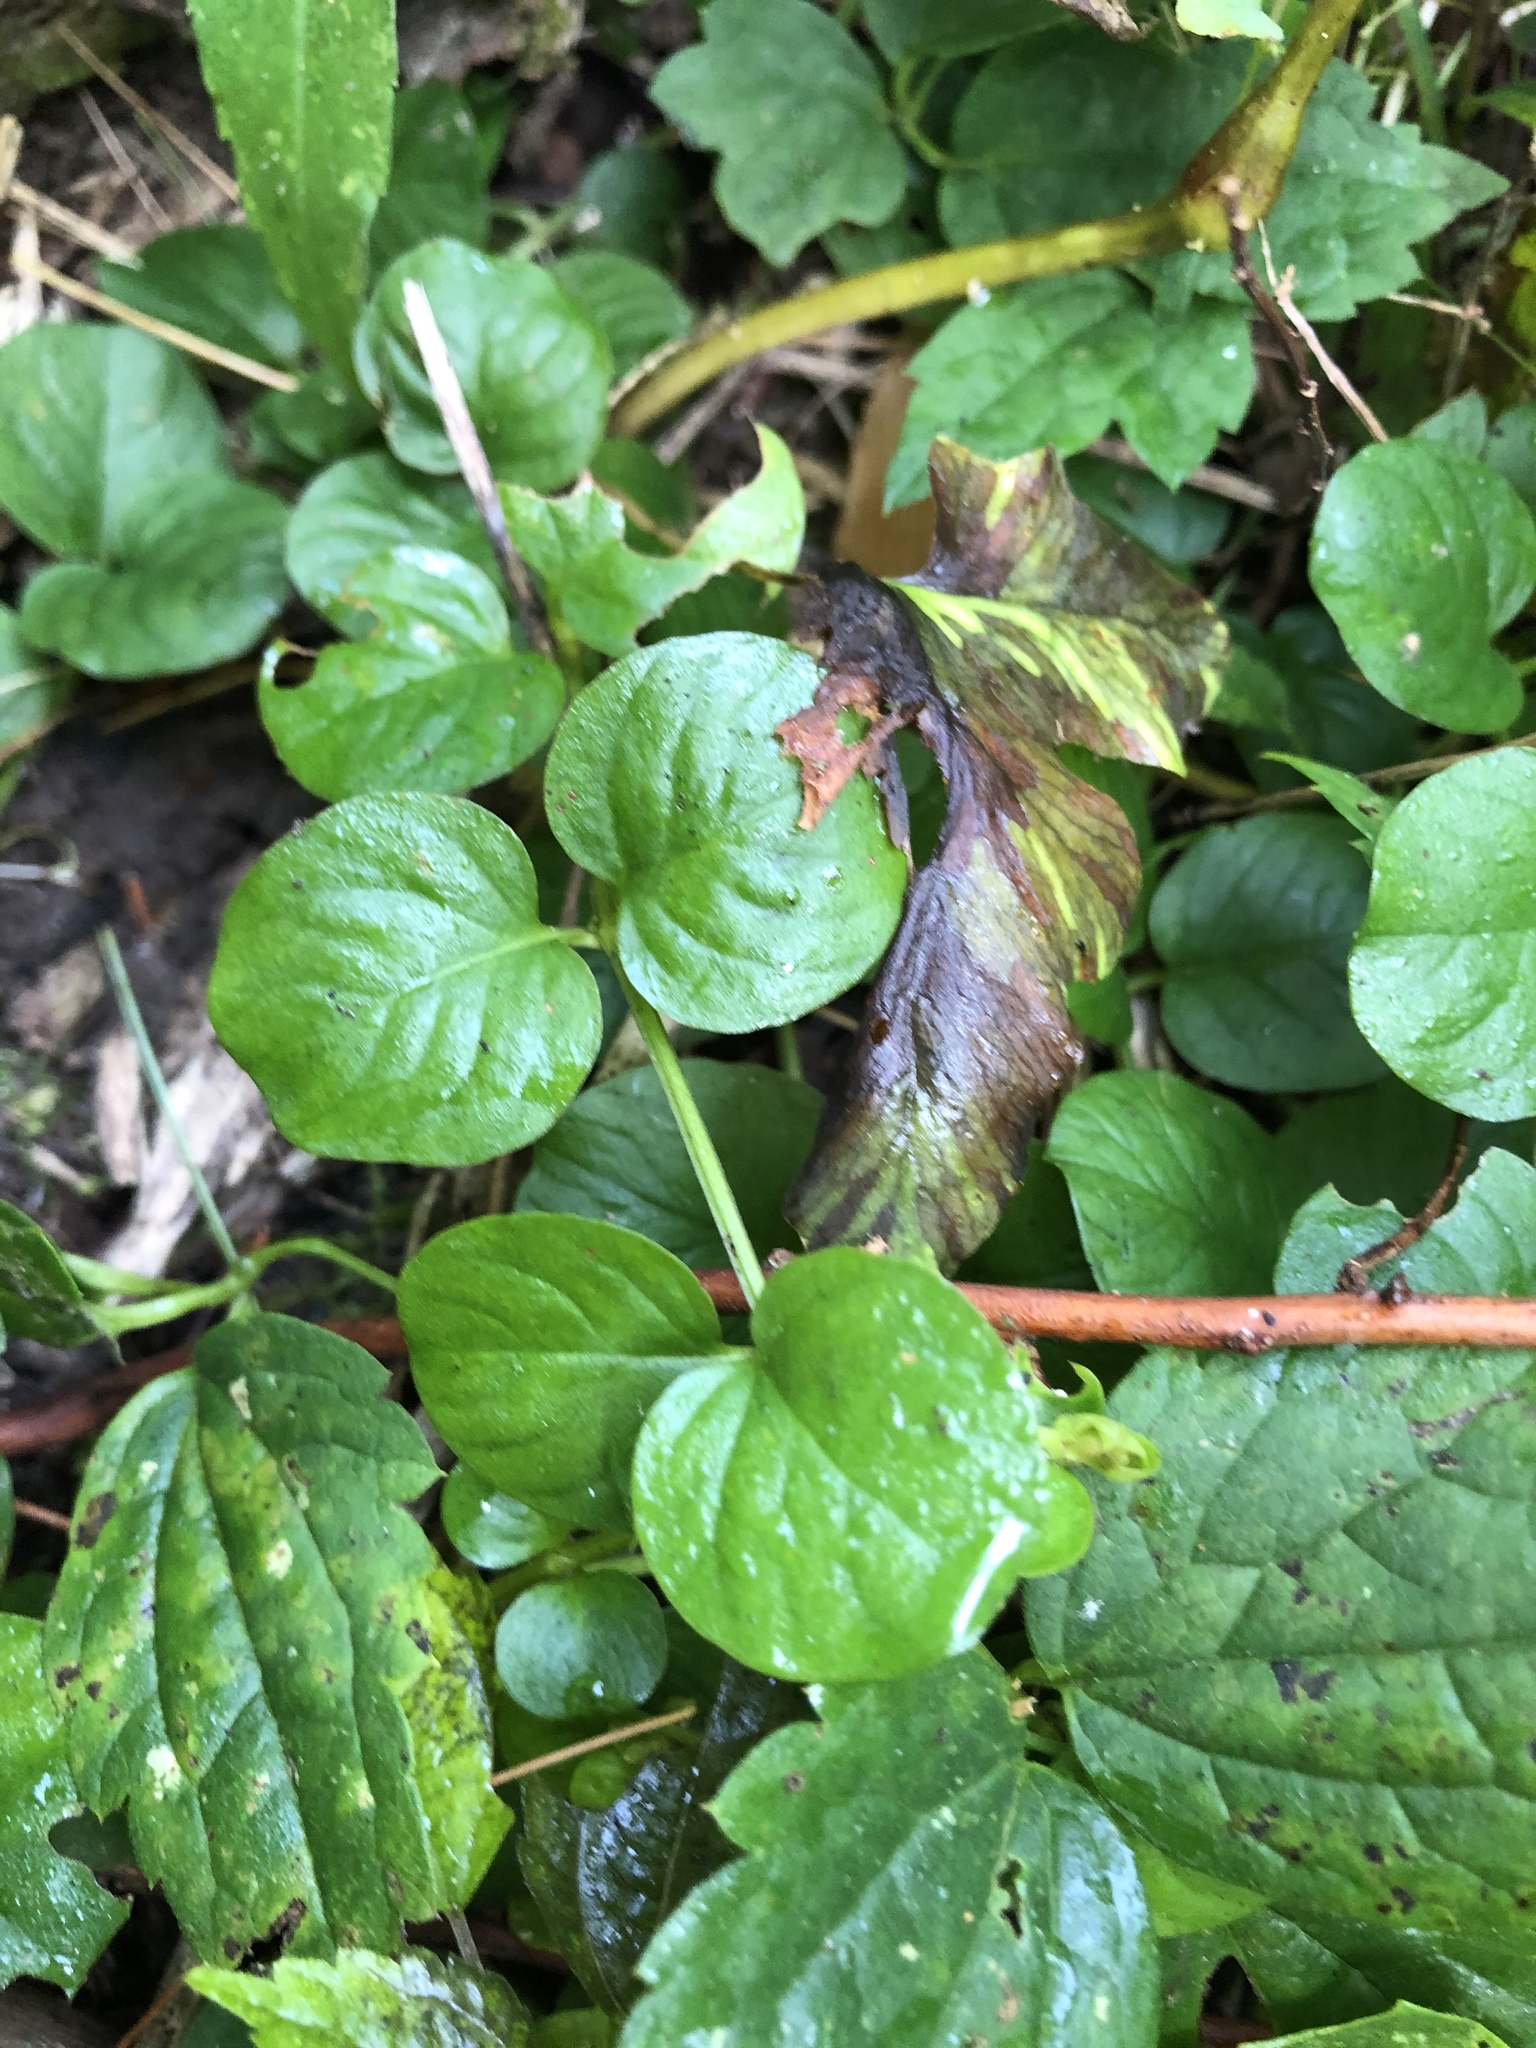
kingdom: Plantae
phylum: Tracheophyta
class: Magnoliopsida
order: Ericales
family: Primulaceae
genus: Lysimachia
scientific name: Lysimachia nummularia
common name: Moneywort
